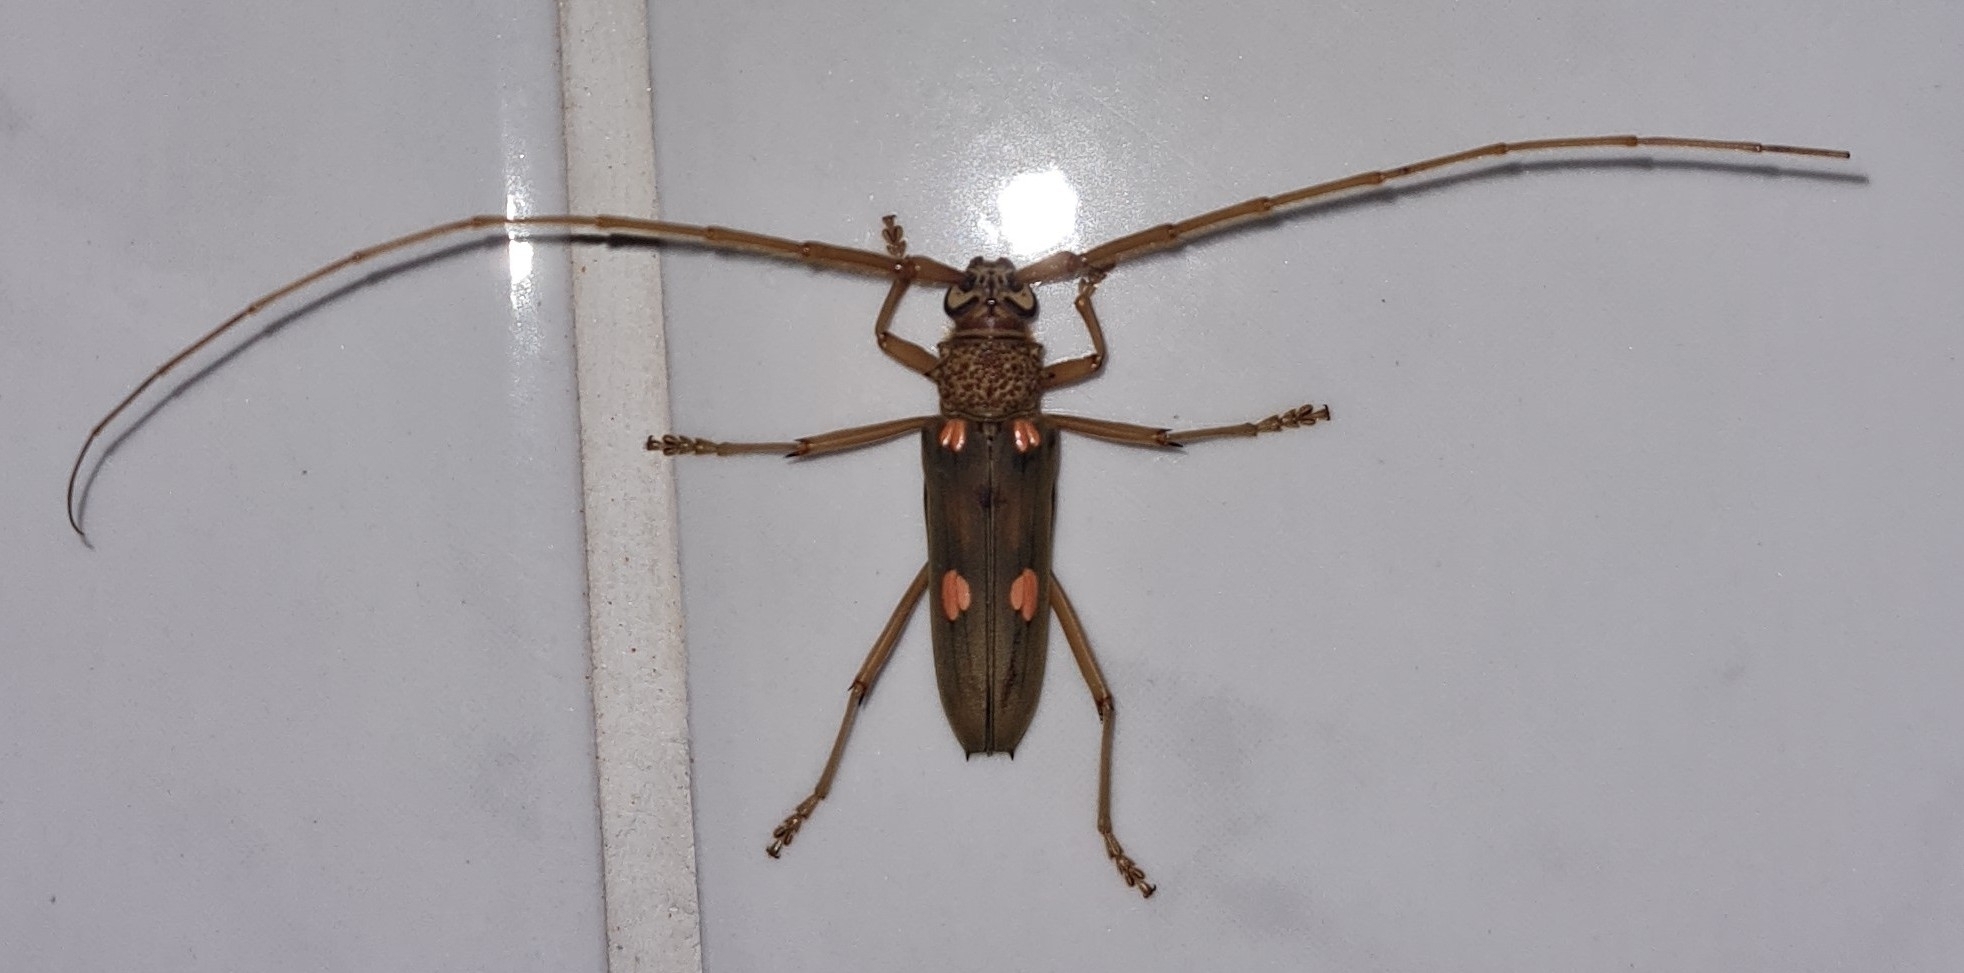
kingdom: Animalia
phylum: Arthropoda
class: Insecta
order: Coleoptera
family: Cerambycidae
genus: Susuacanga
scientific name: Susuacanga octoguttata
